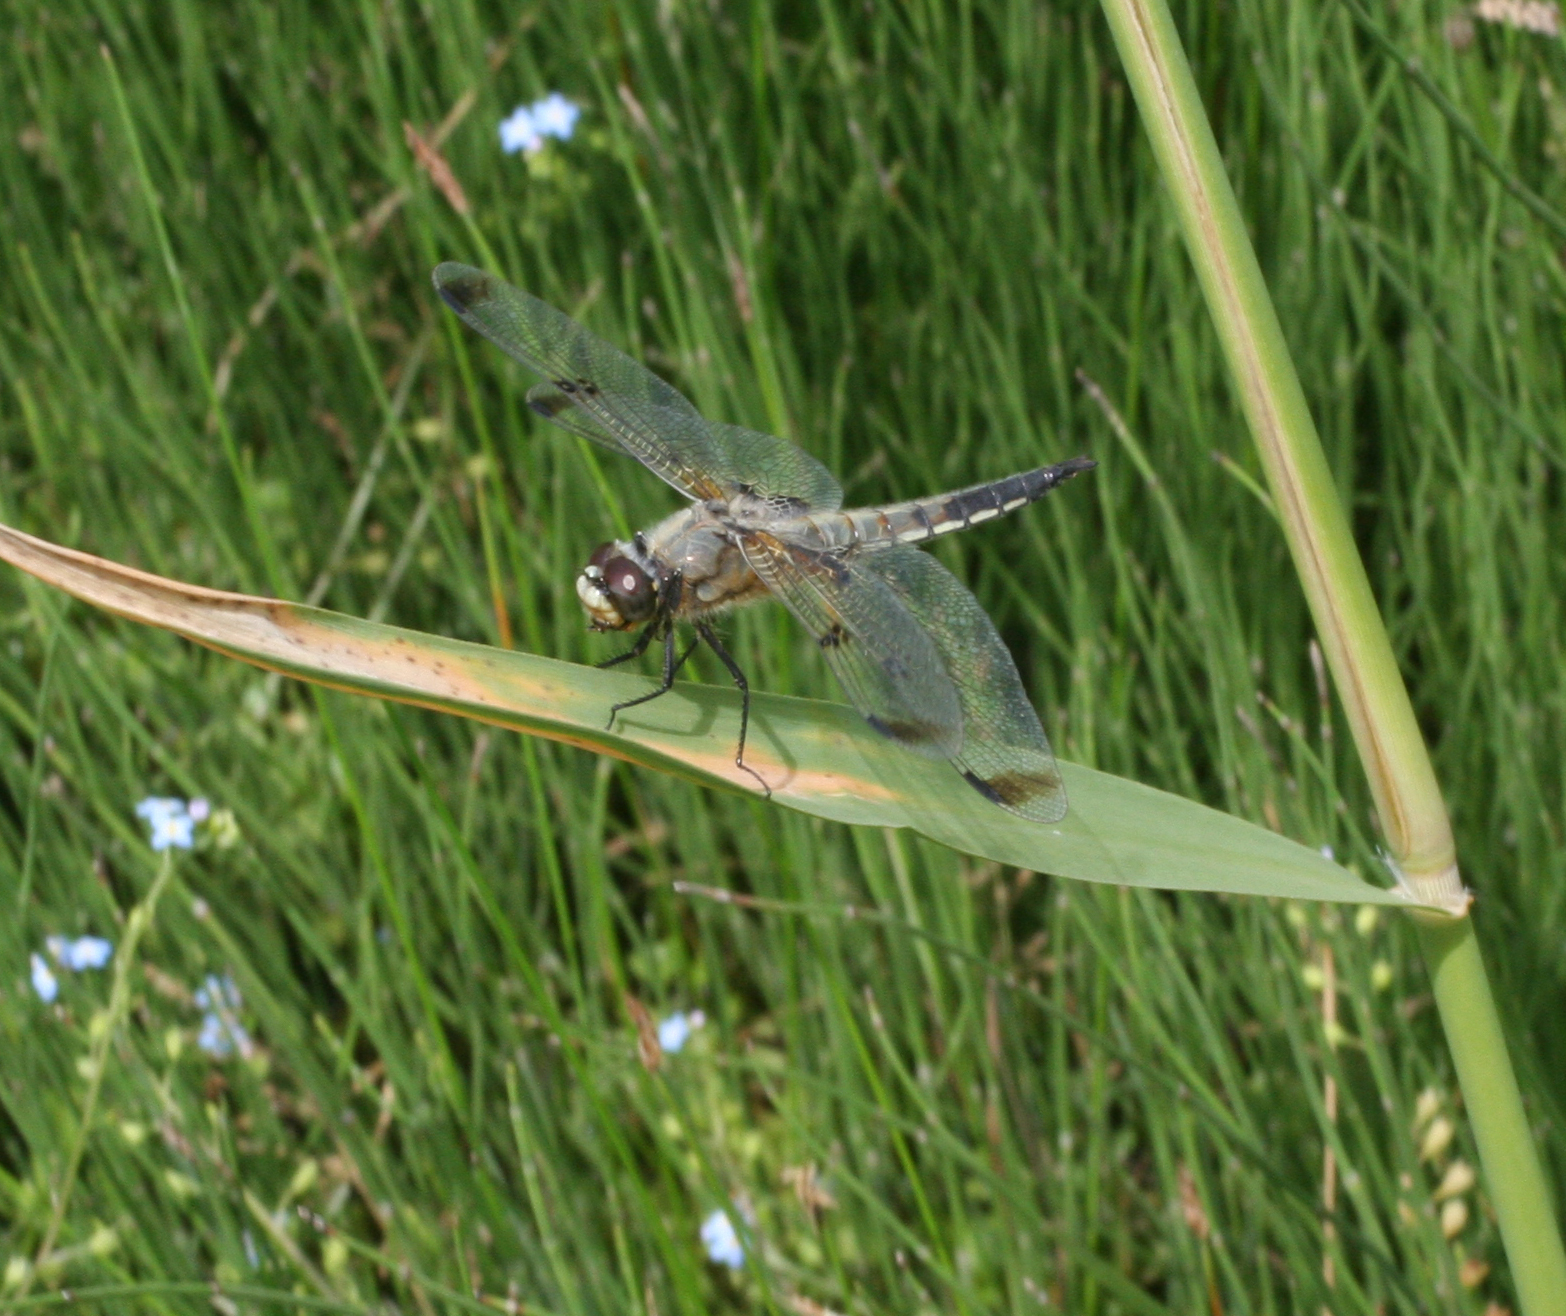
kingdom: Animalia
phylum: Arthropoda
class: Insecta
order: Odonata
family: Libellulidae
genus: Libellula
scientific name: Libellula quadrimaculata
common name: Four-spotted chaser
